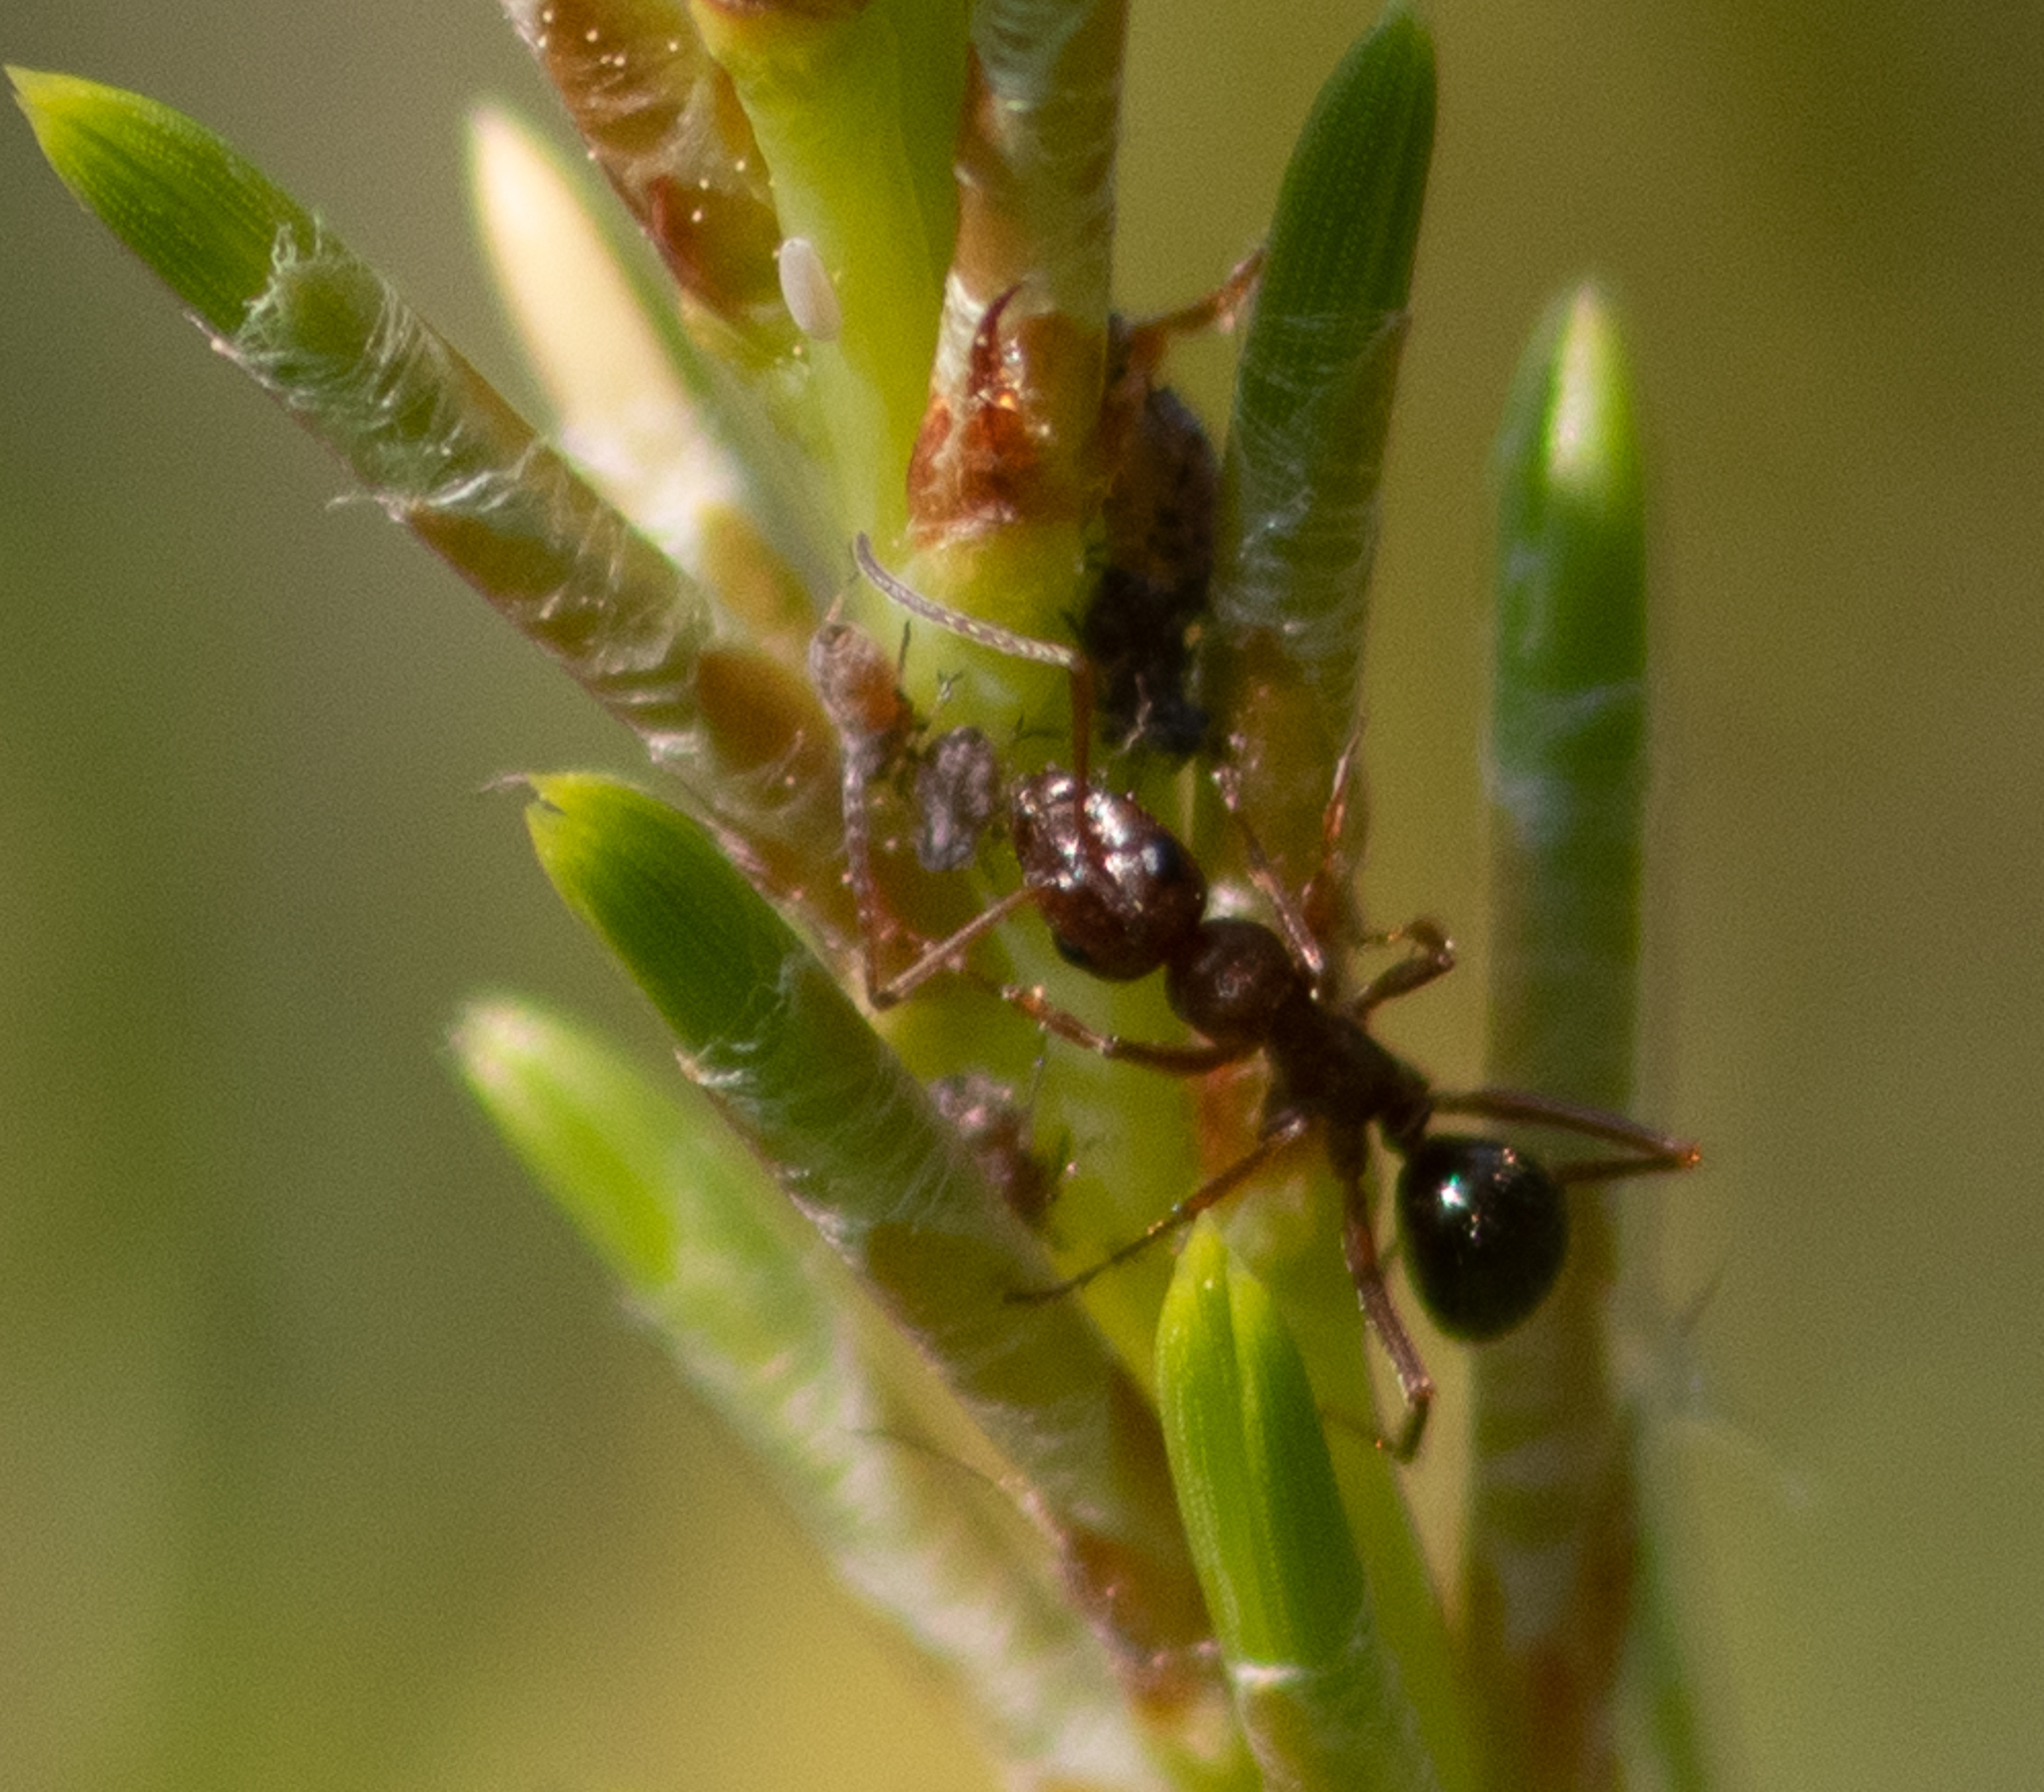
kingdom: Animalia
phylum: Arthropoda
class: Insecta
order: Hymenoptera
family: Formicidae
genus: Formica
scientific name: Formica
